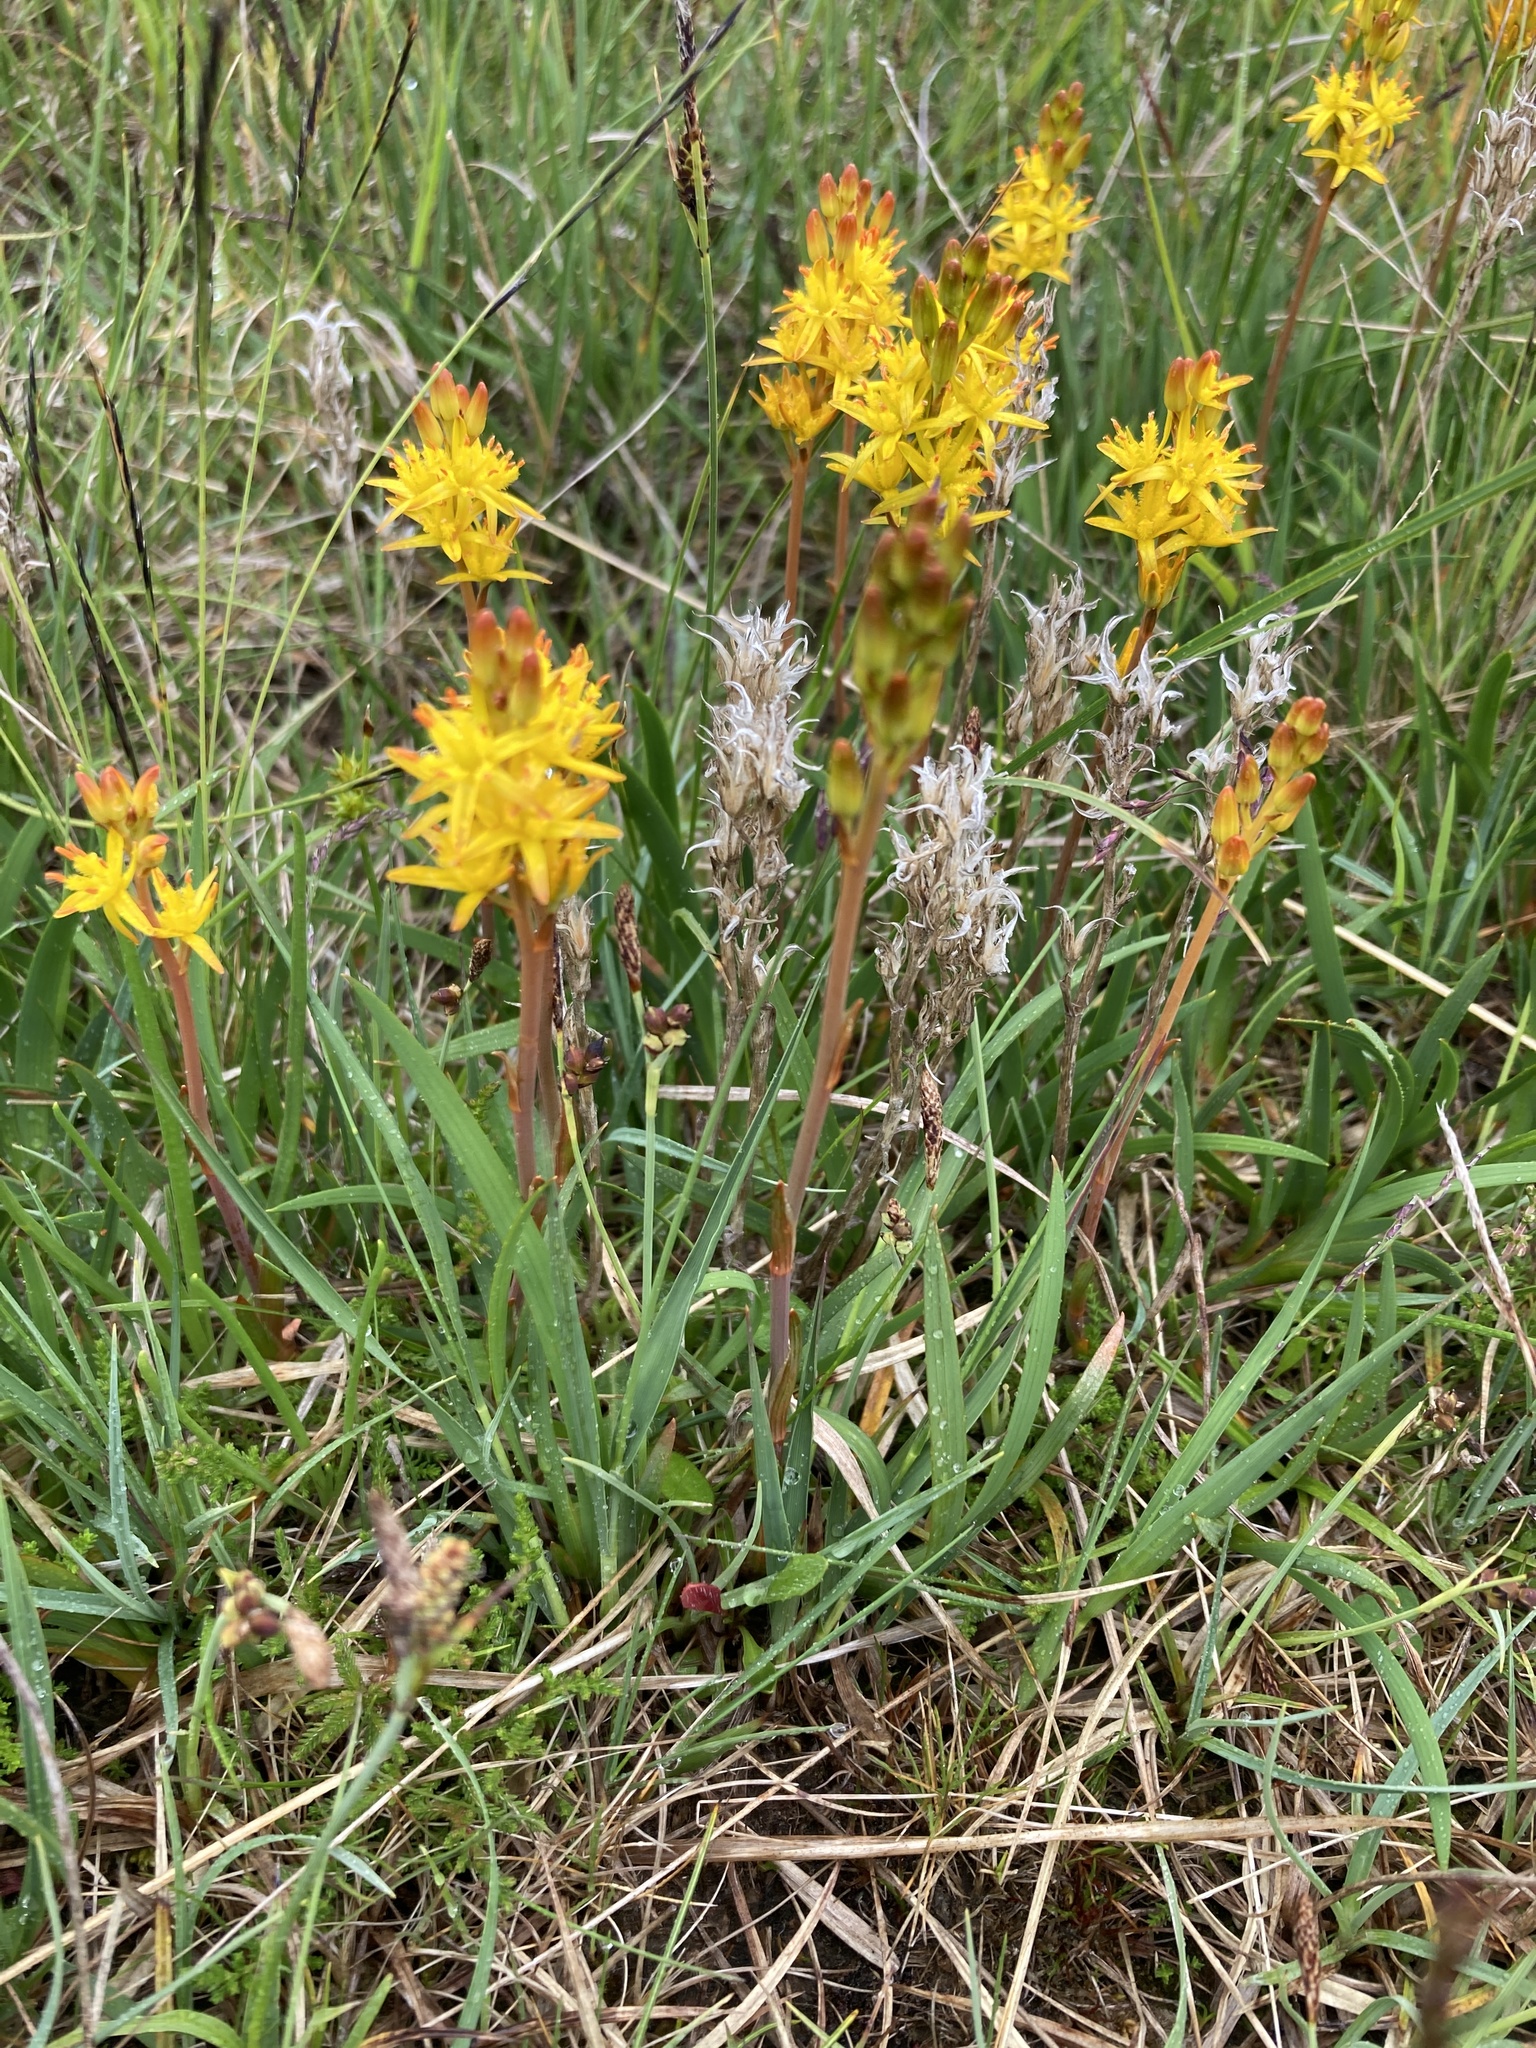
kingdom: Plantae
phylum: Tracheophyta
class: Liliopsida
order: Dioscoreales
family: Nartheciaceae
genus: Narthecium
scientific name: Narthecium ossifragum
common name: Bog asphodel
